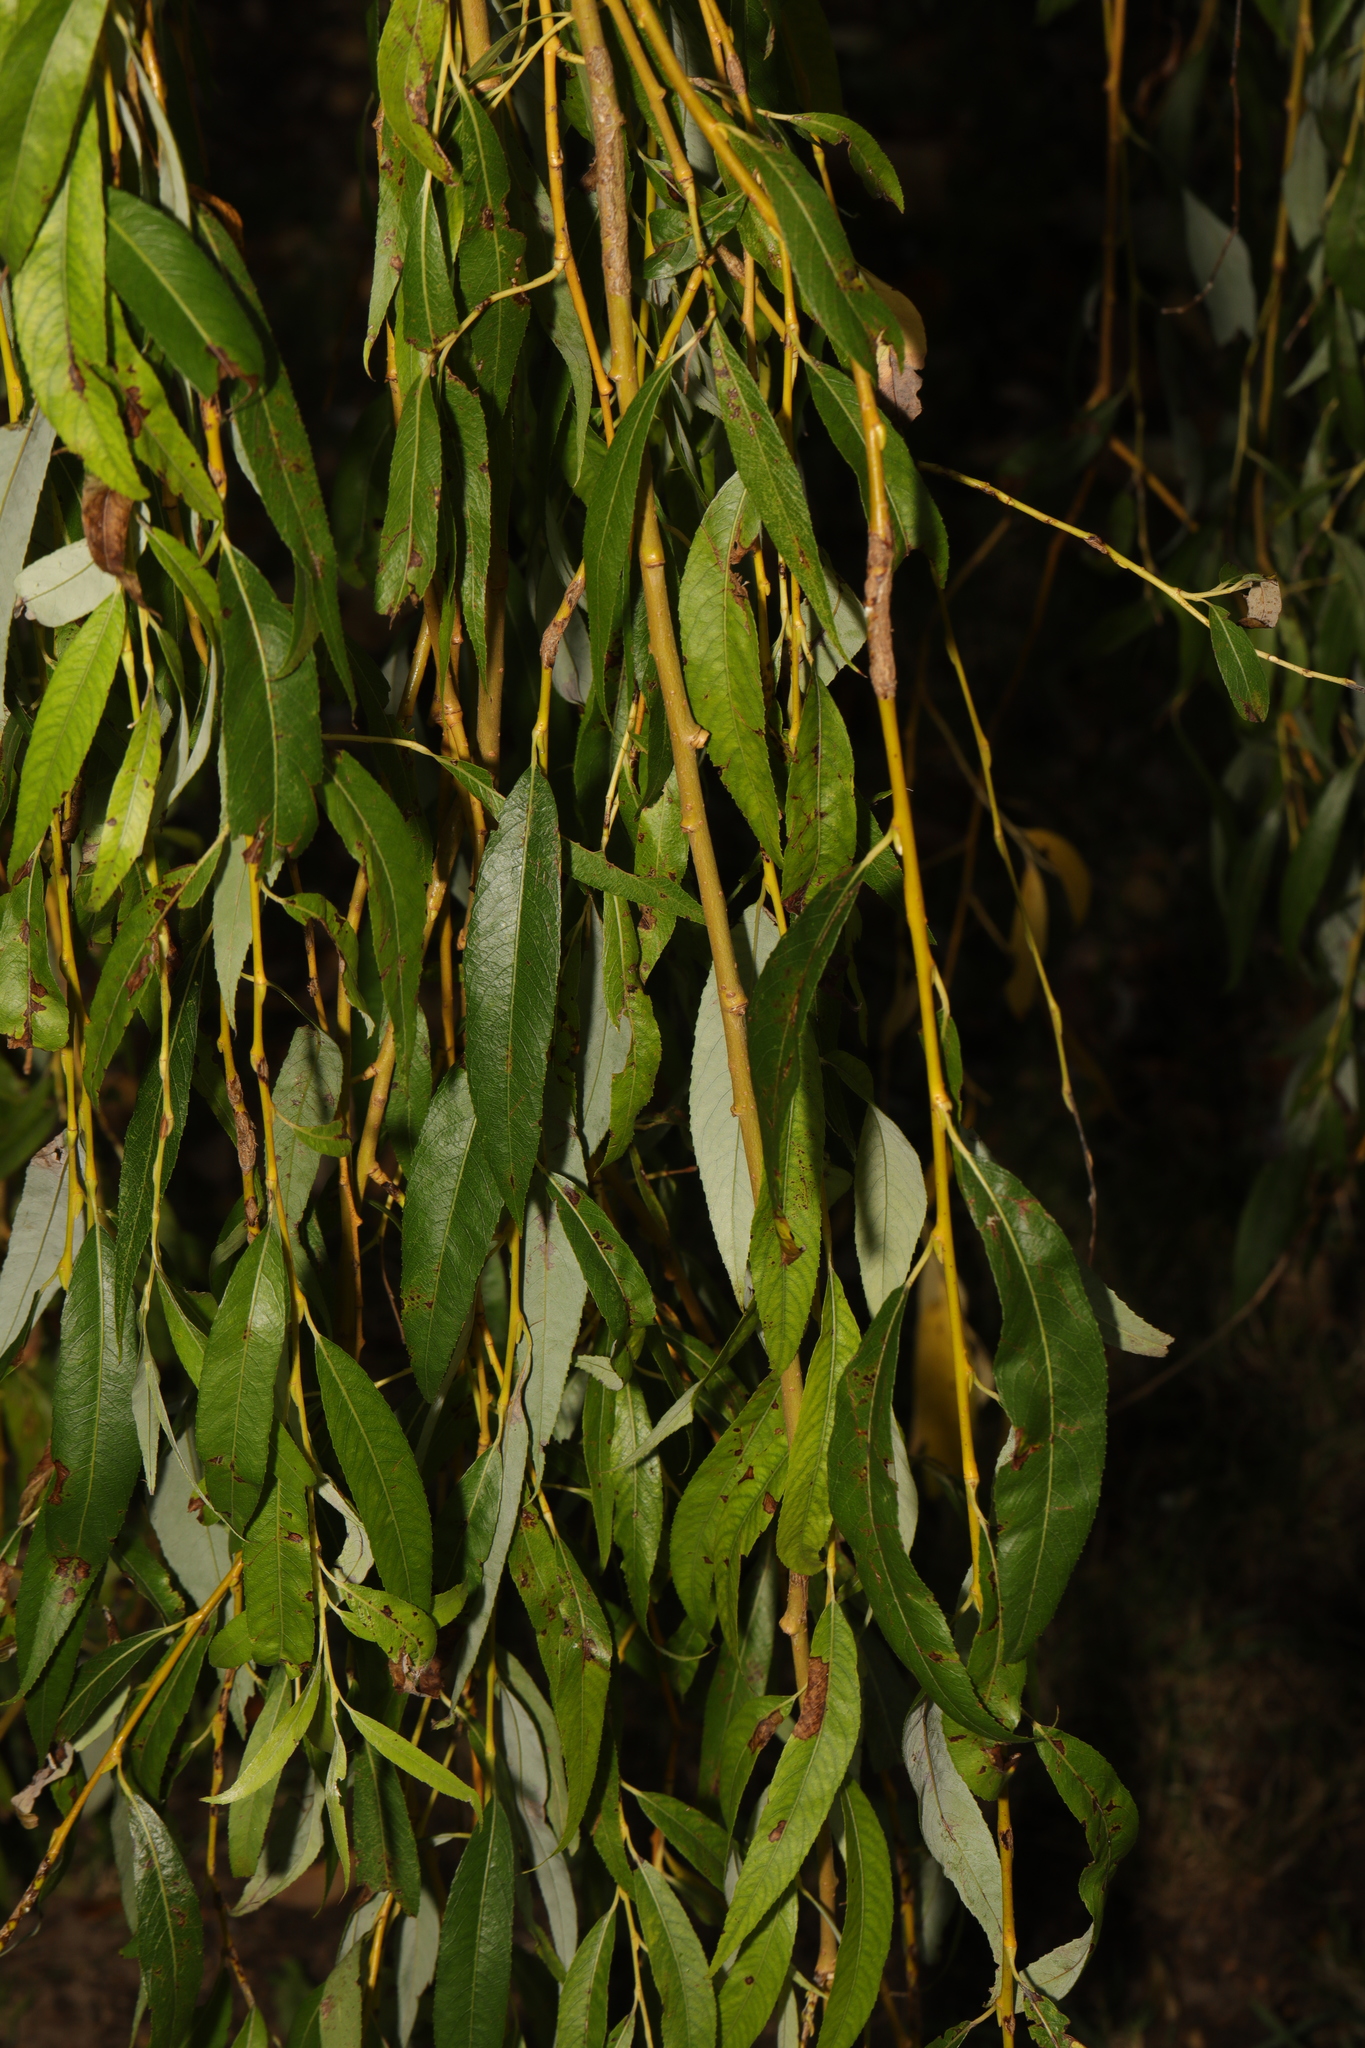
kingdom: Plantae
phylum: Tracheophyta
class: Magnoliopsida
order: Malpighiales
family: Salicaceae
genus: Salix
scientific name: Salix pendulina
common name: Wisconsin weeping willow
